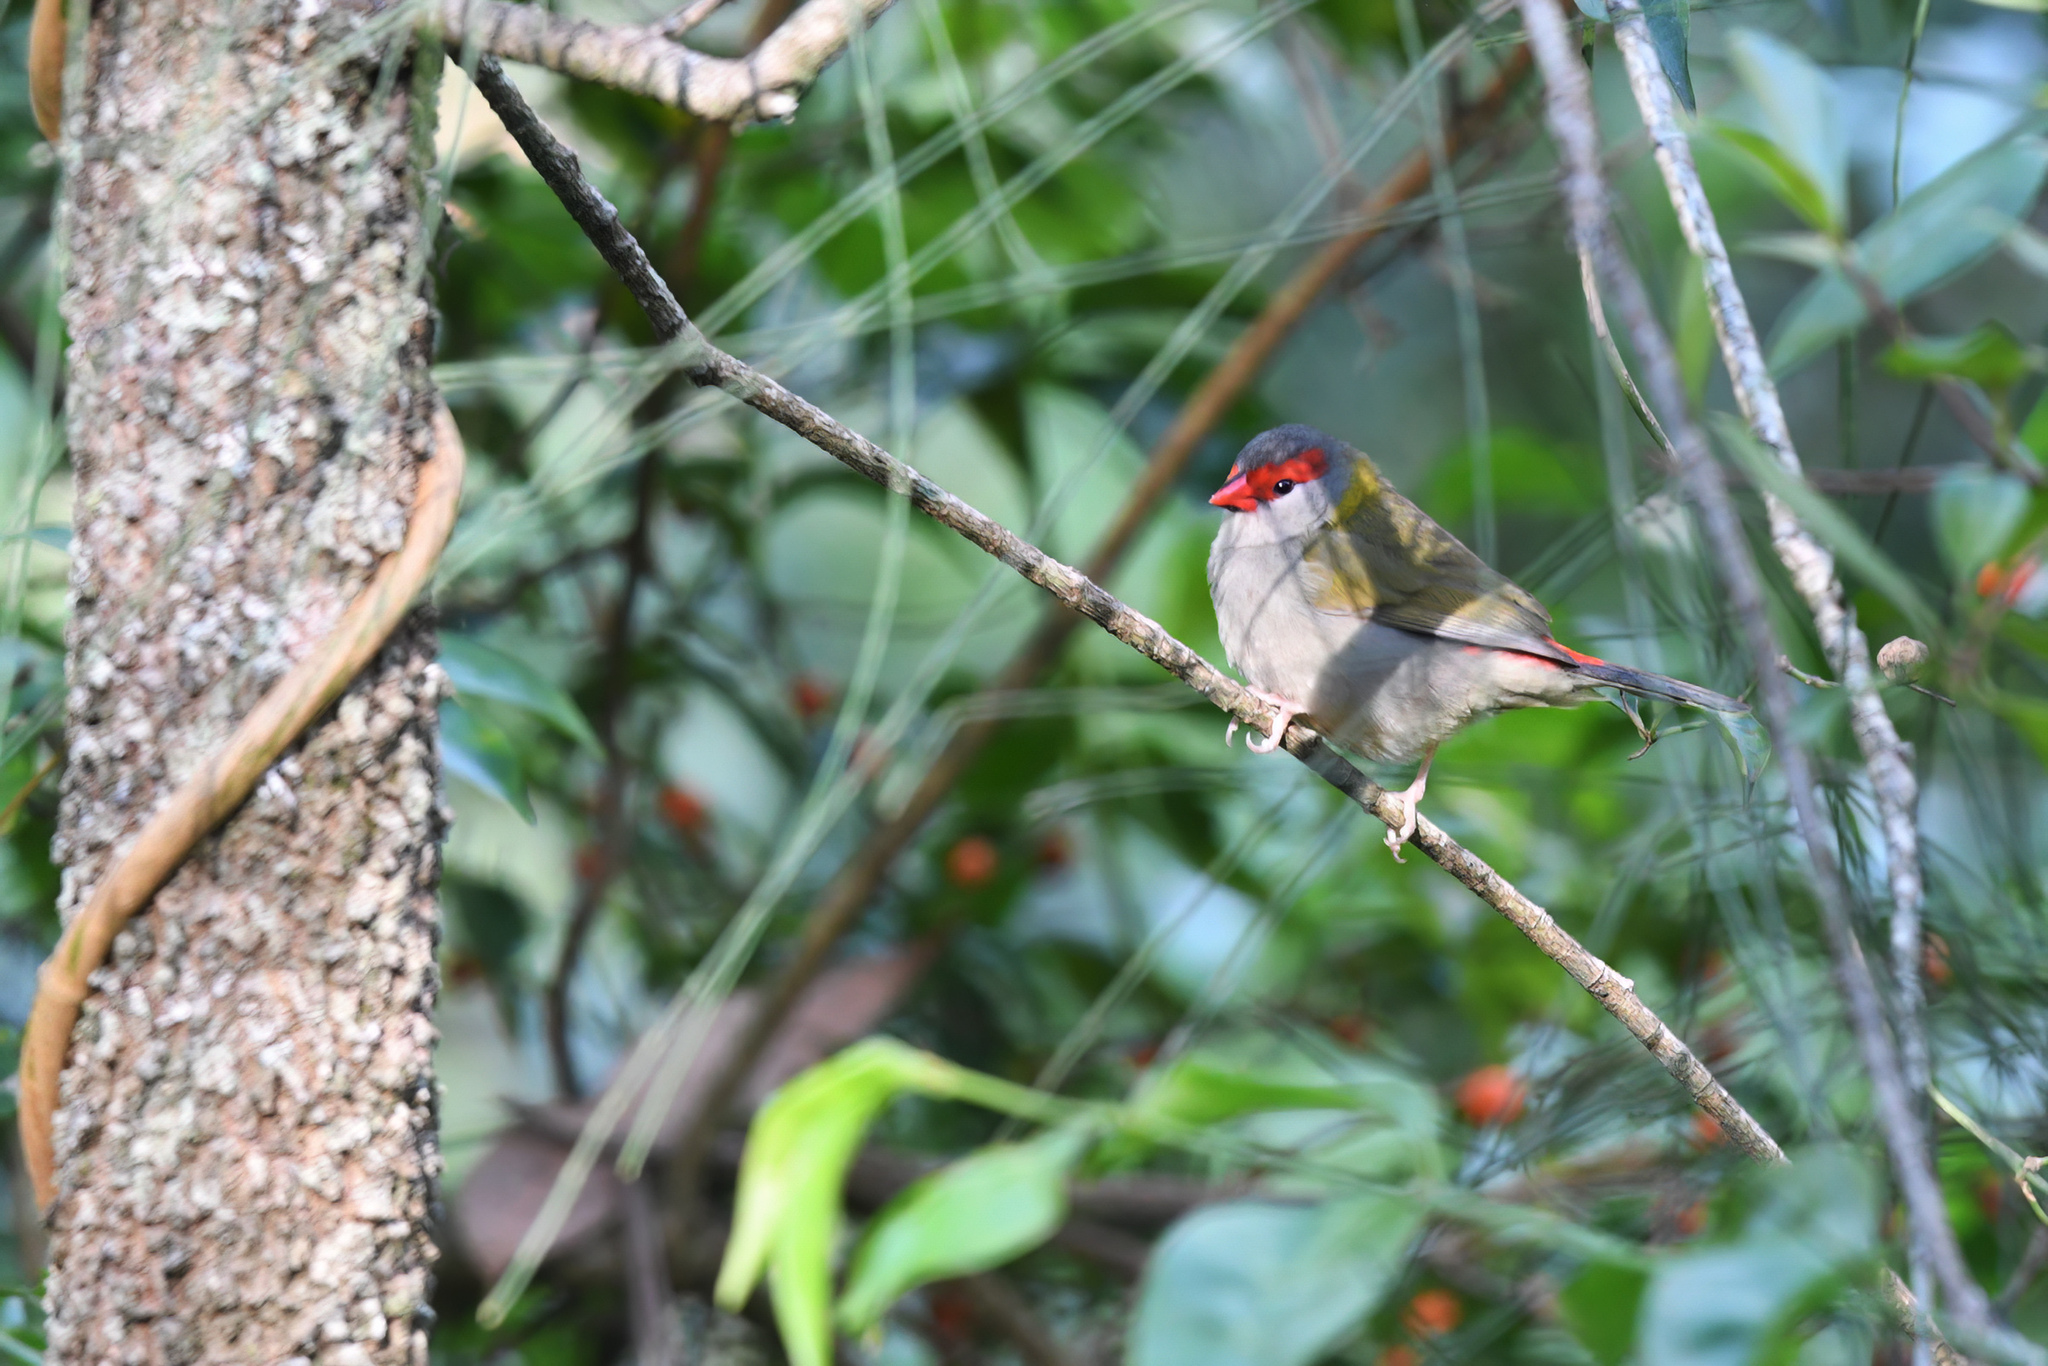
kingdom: Animalia
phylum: Chordata
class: Aves
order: Passeriformes
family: Estrildidae
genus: Neochmia
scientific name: Neochmia temporalis
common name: Red-browed finch
